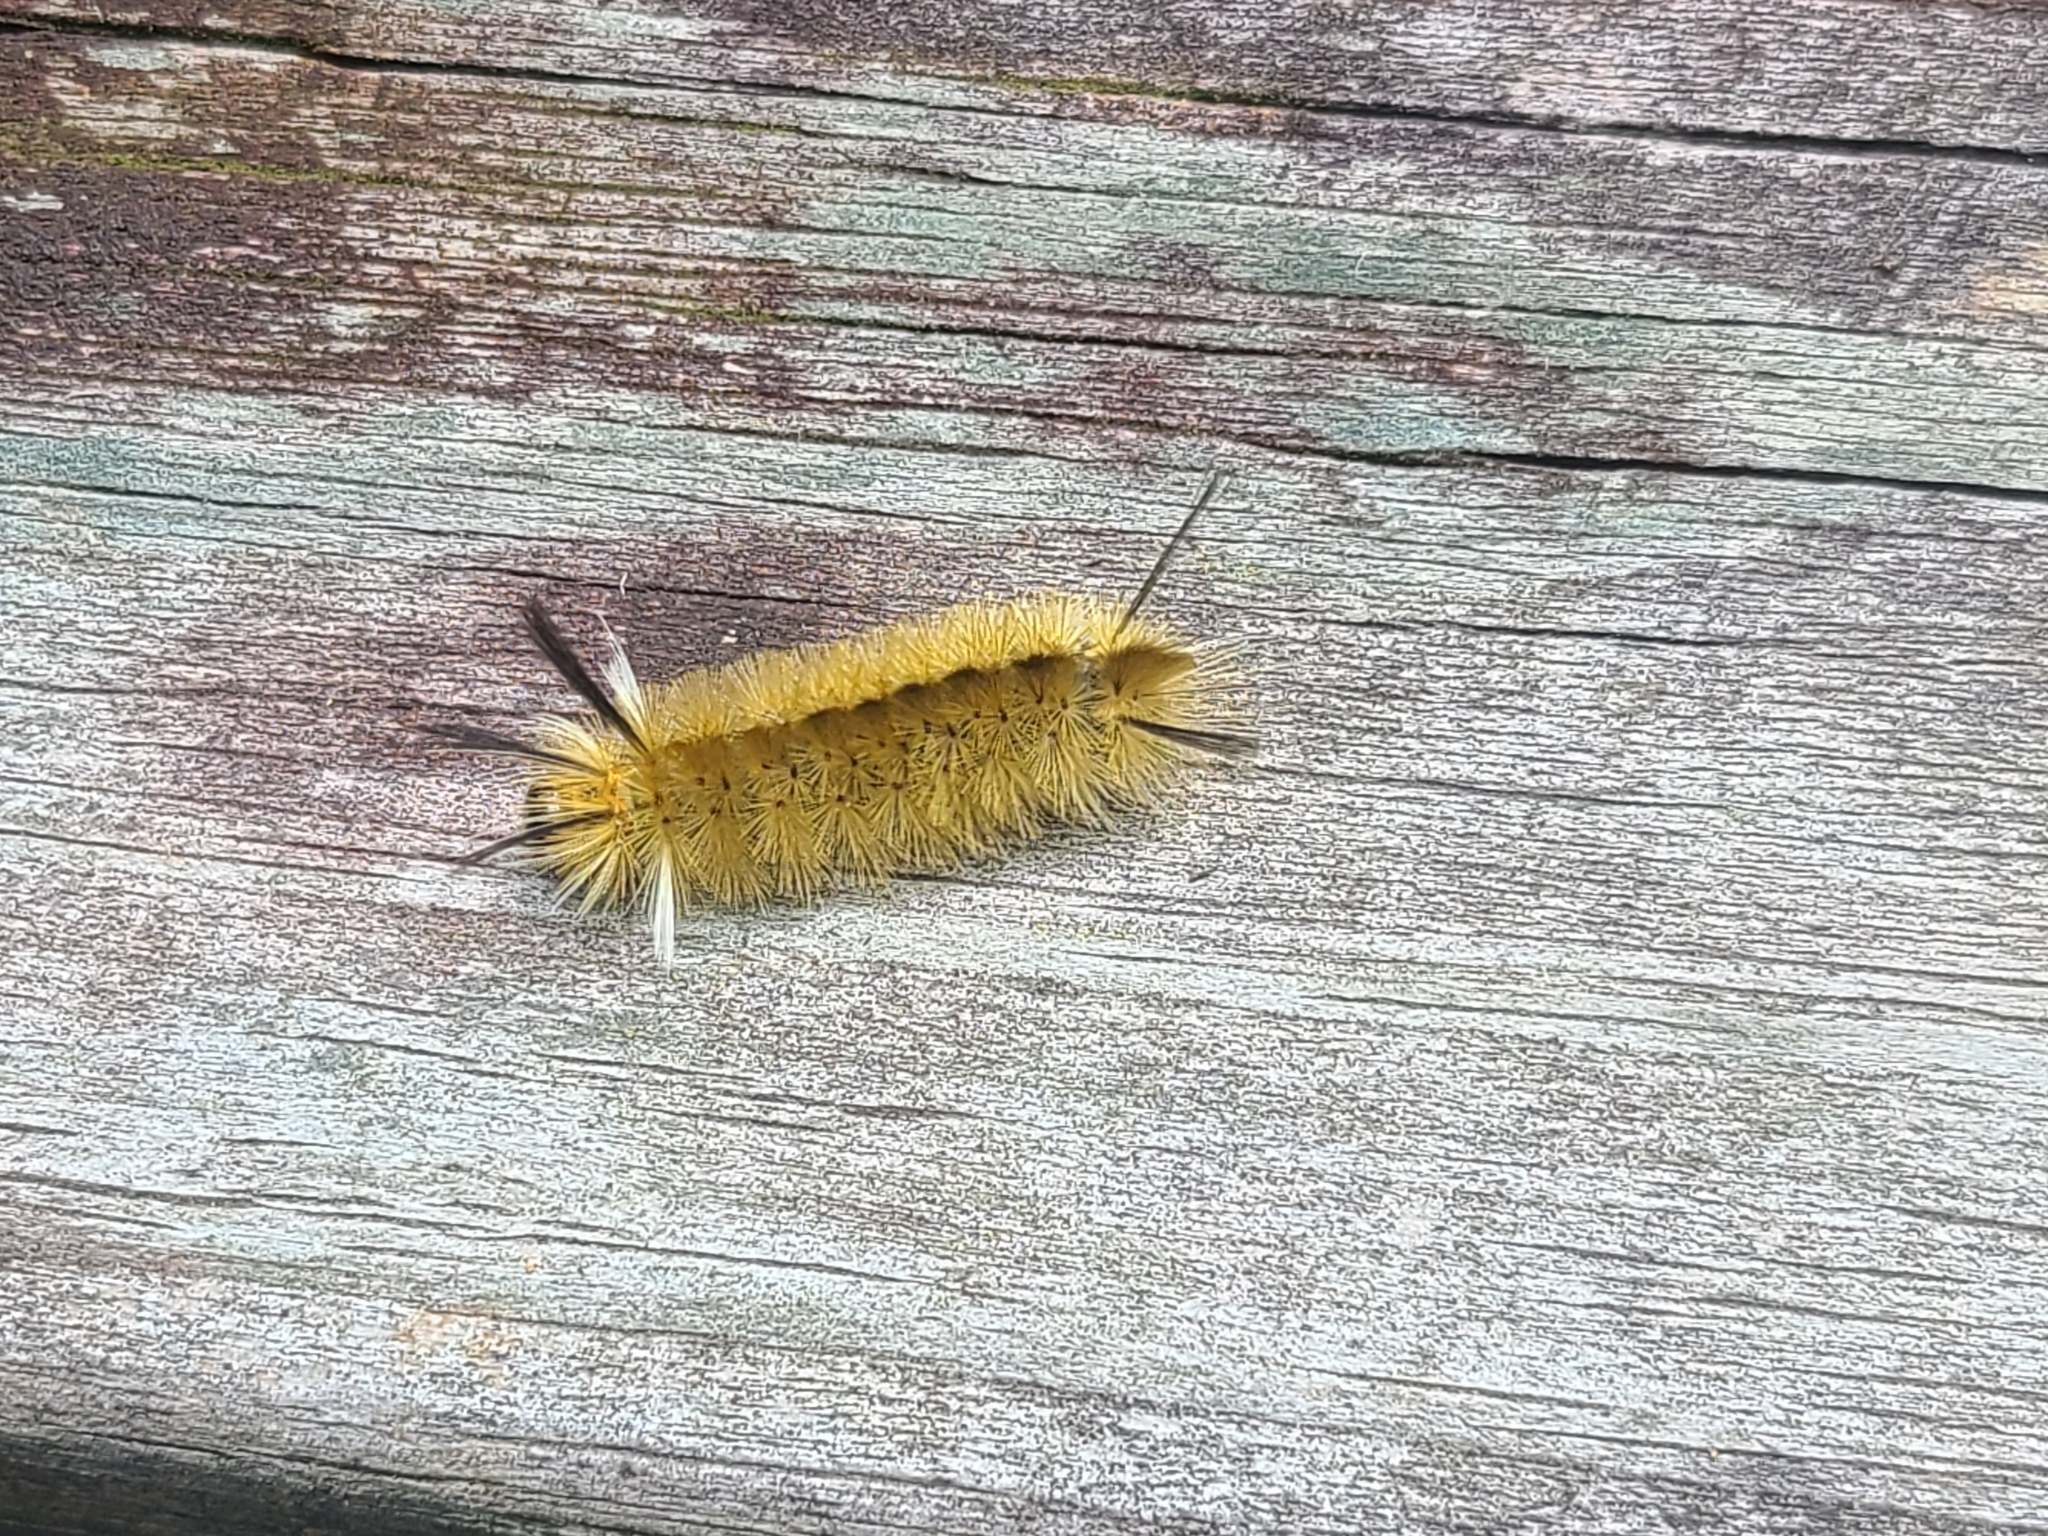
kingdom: Animalia
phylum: Arthropoda
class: Insecta
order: Lepidoptera
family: Erebidae
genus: Halysidota
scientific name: Halysidota tessellaris
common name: Banded tussock moth
